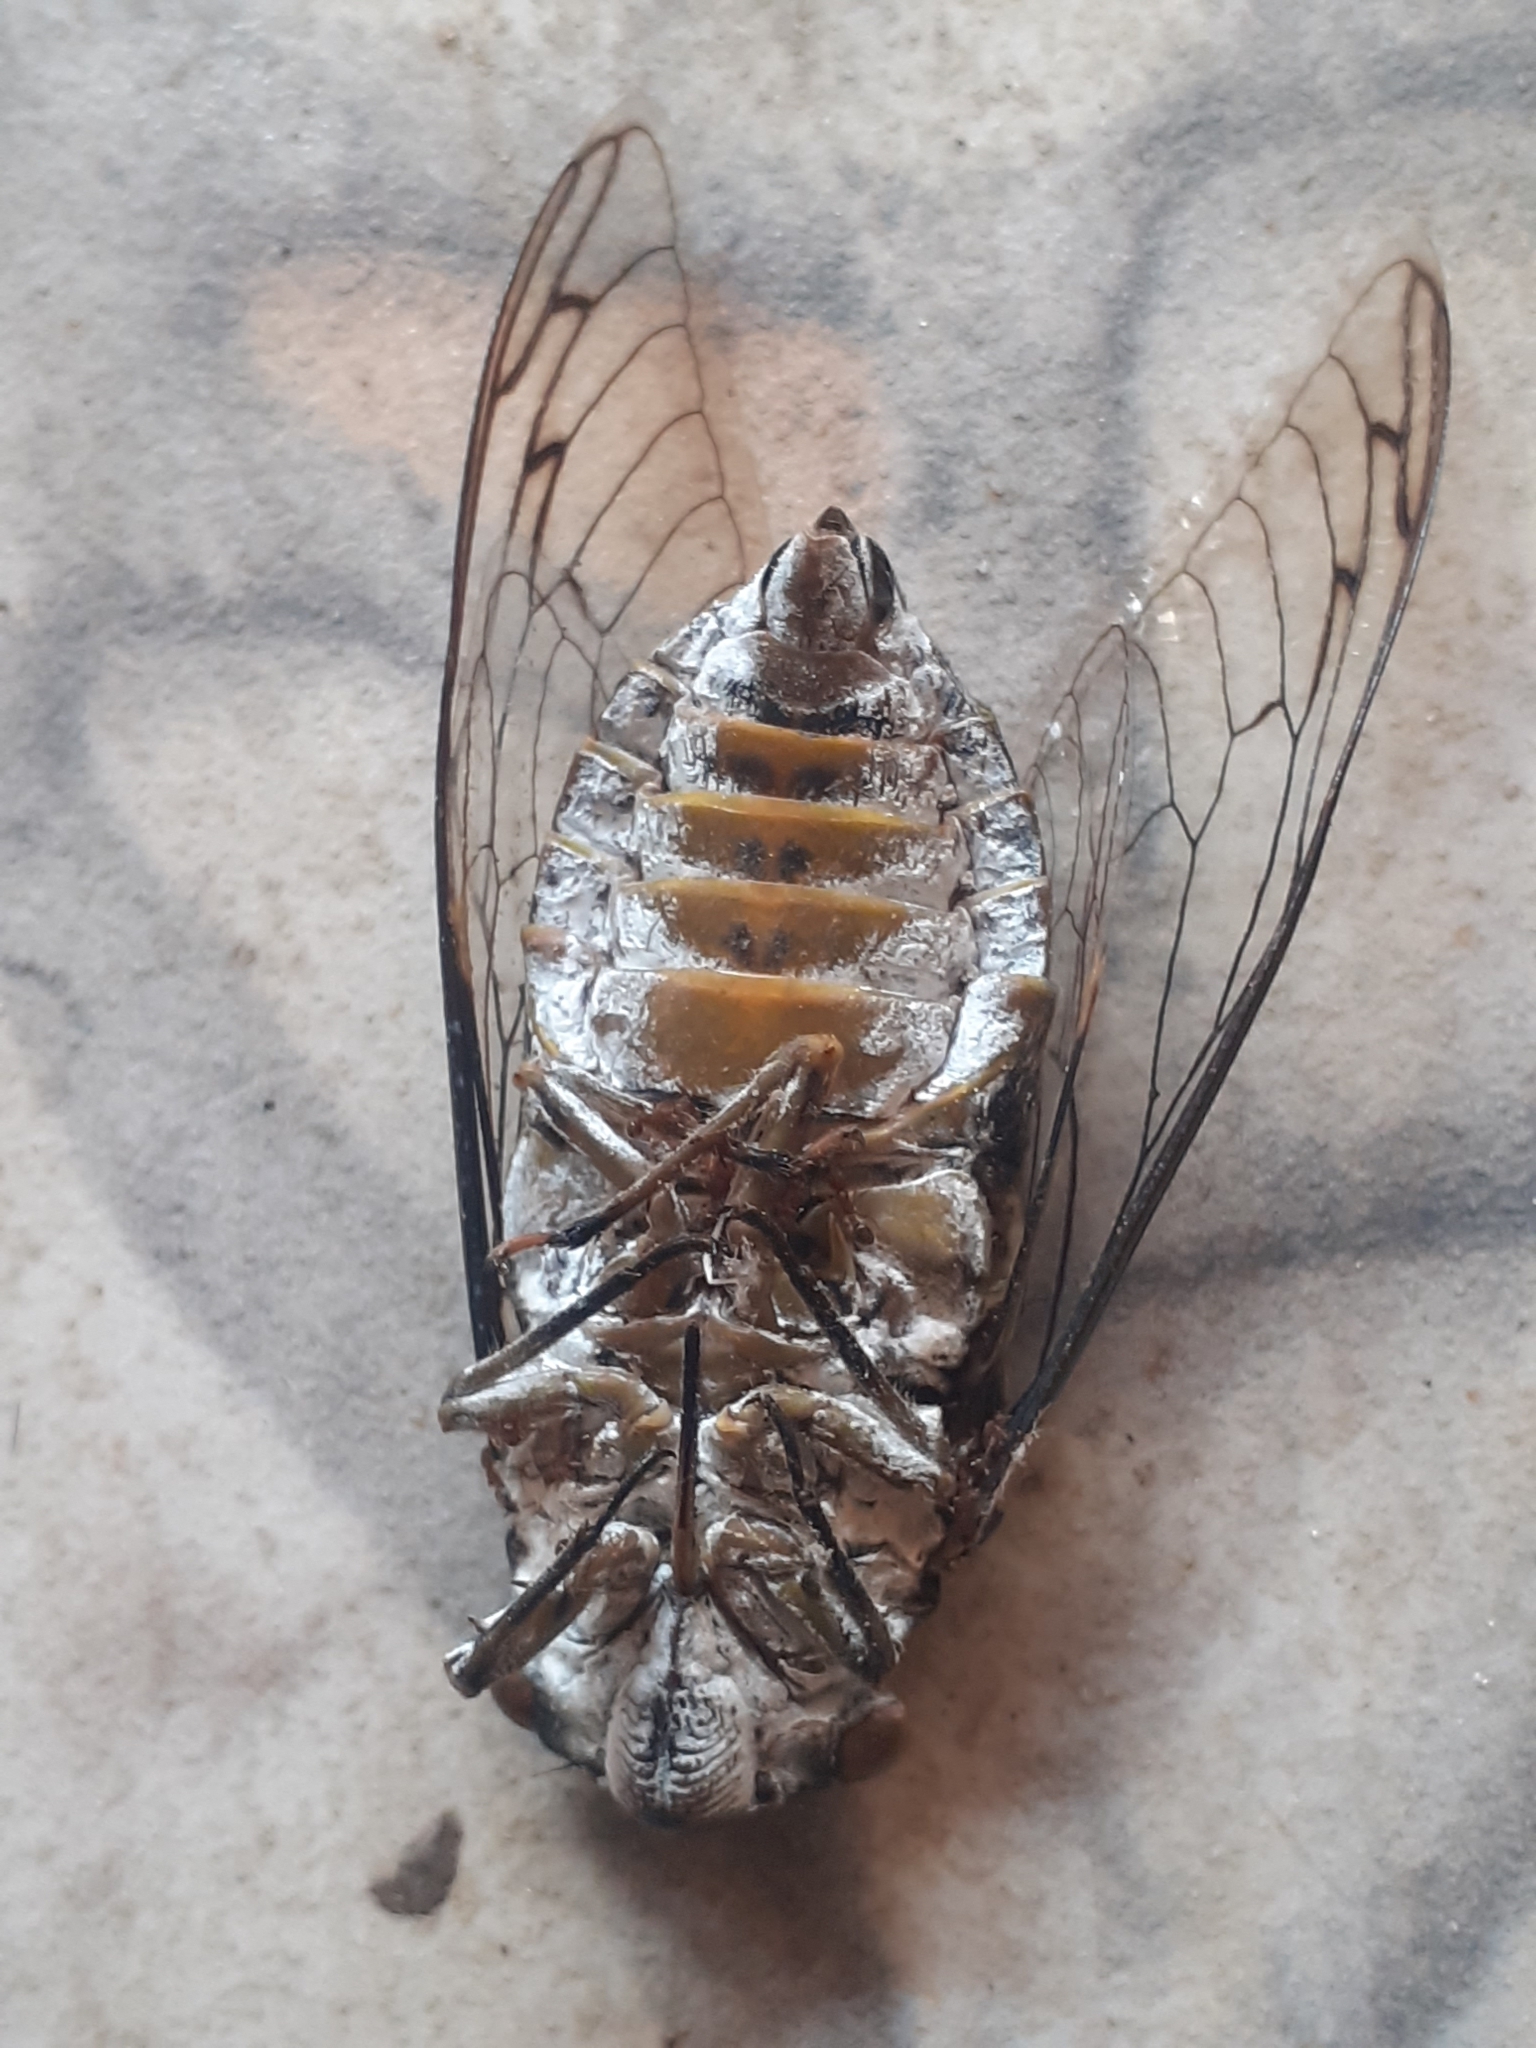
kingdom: Animalia
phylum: Arthropoda
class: Insecta
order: Hemiptera
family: Cicadidae
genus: Quesada
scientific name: Quesada gigas
